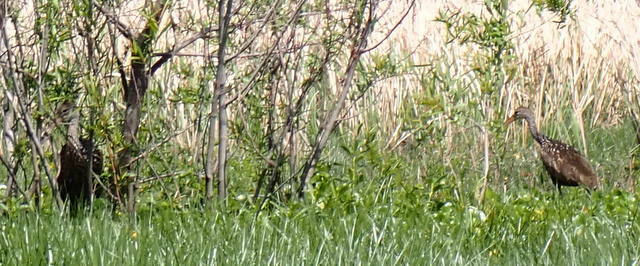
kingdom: Animalia
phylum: Chordata
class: Aves
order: Gruiformes
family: Aramidae
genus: Aramus
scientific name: Aramus guarauna
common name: Limpkin
